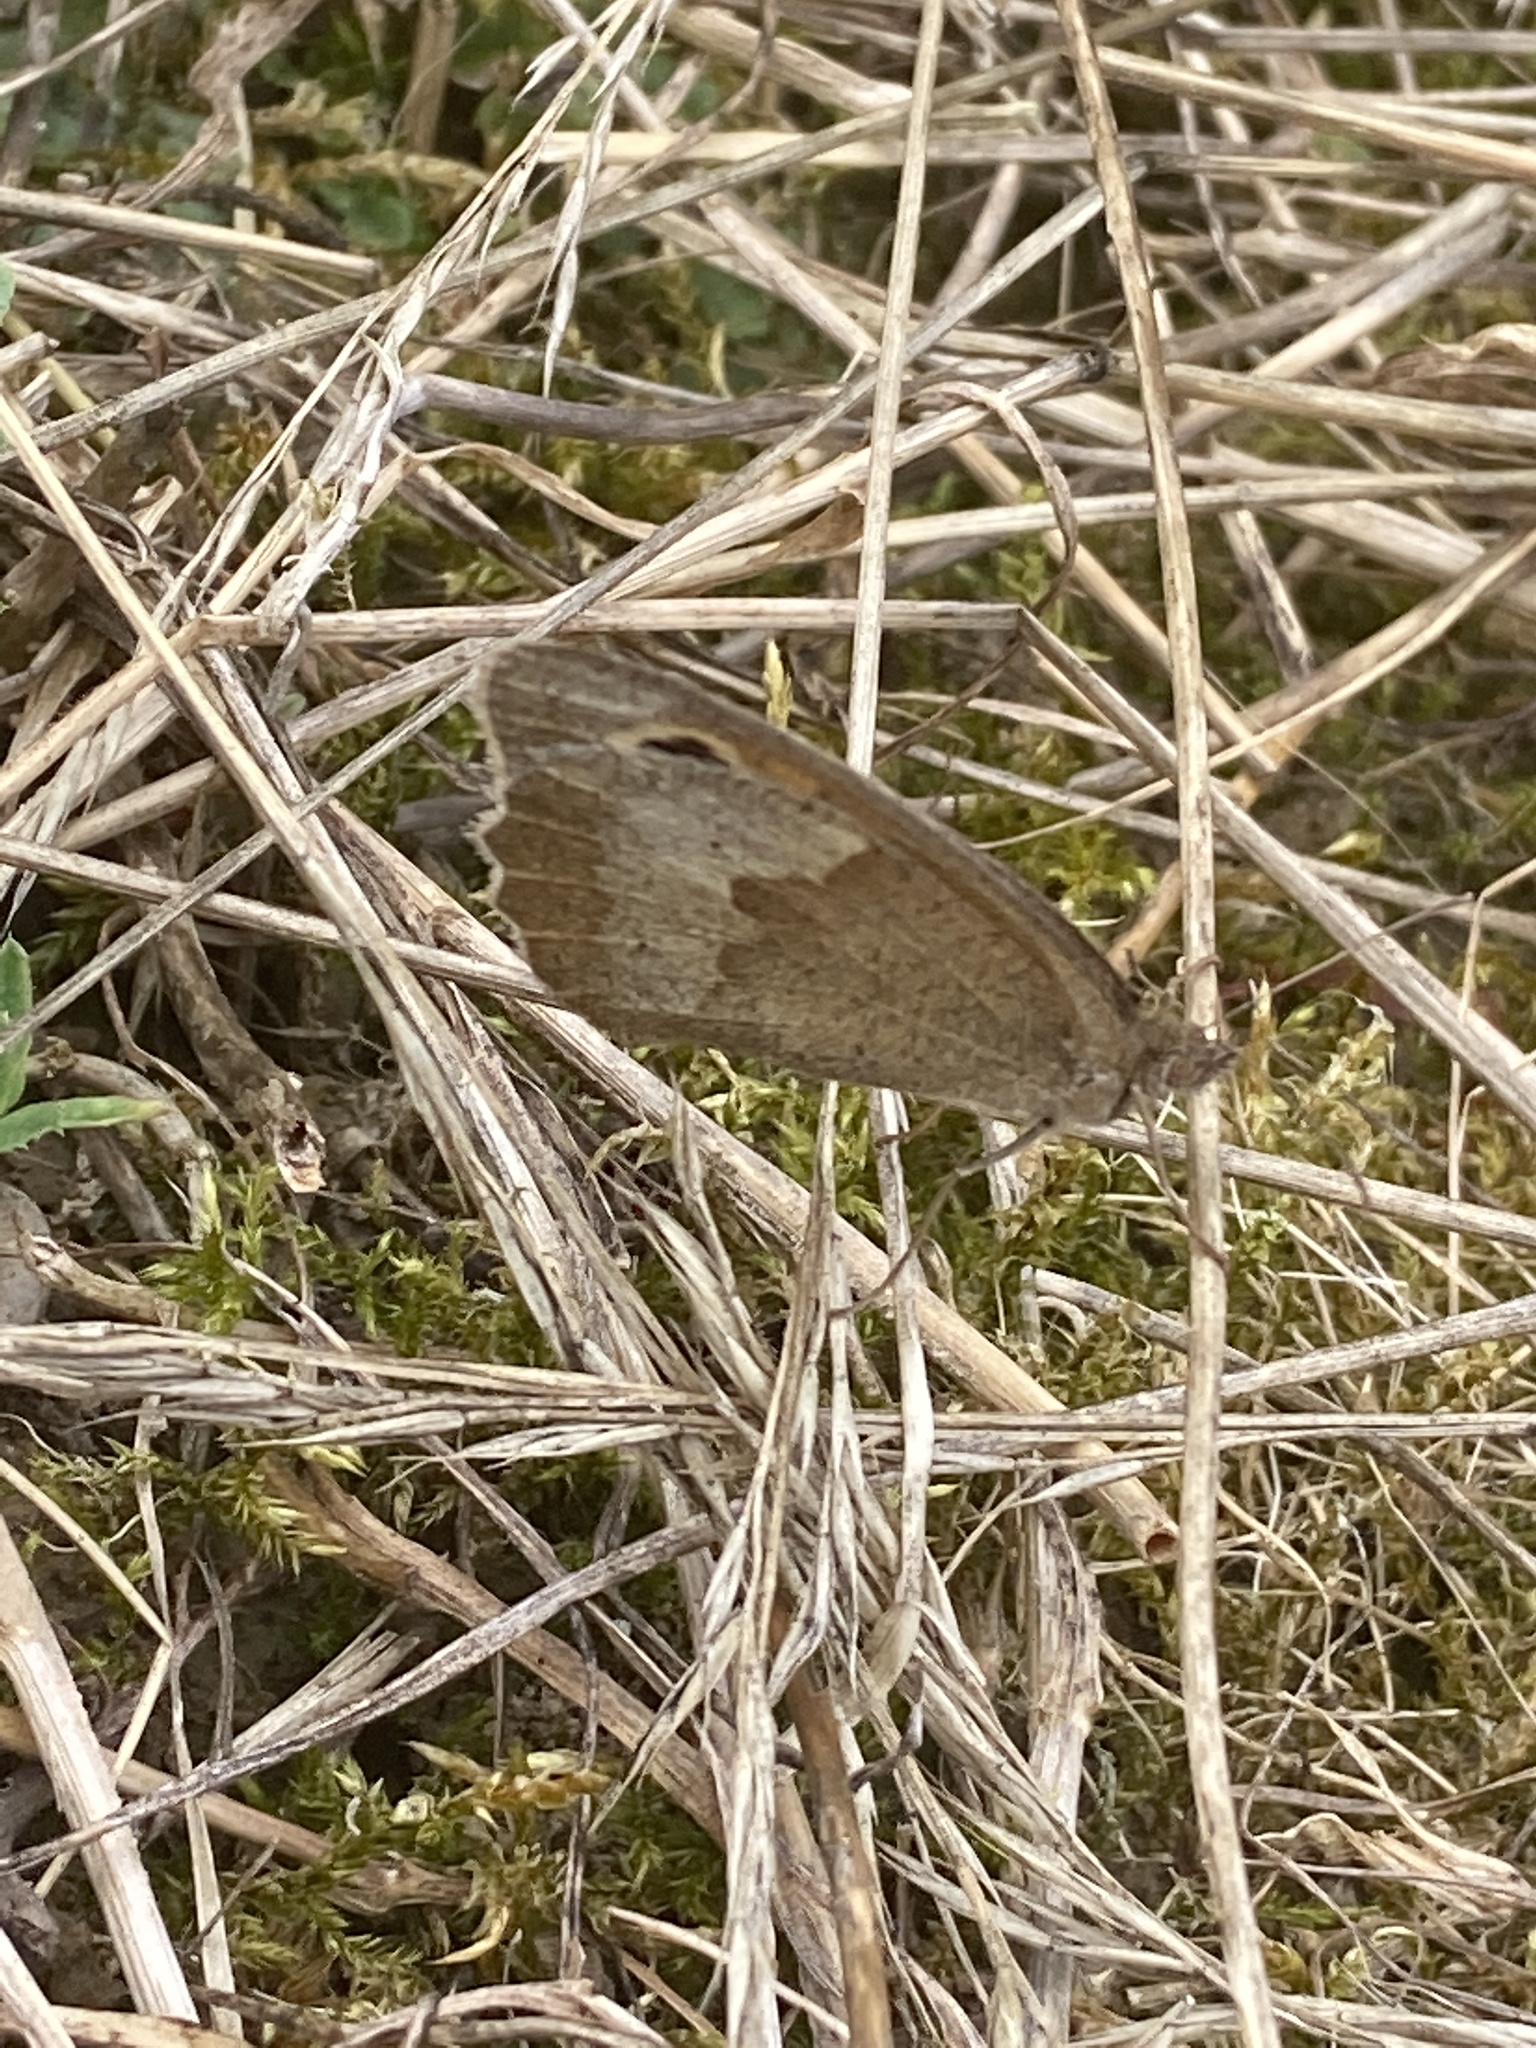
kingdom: Animalia
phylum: Arthropoda
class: Insecta
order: Lepidoptera
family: Nymphalidae
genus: Maniola
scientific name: Maniola jurtina
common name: Meadow brown
